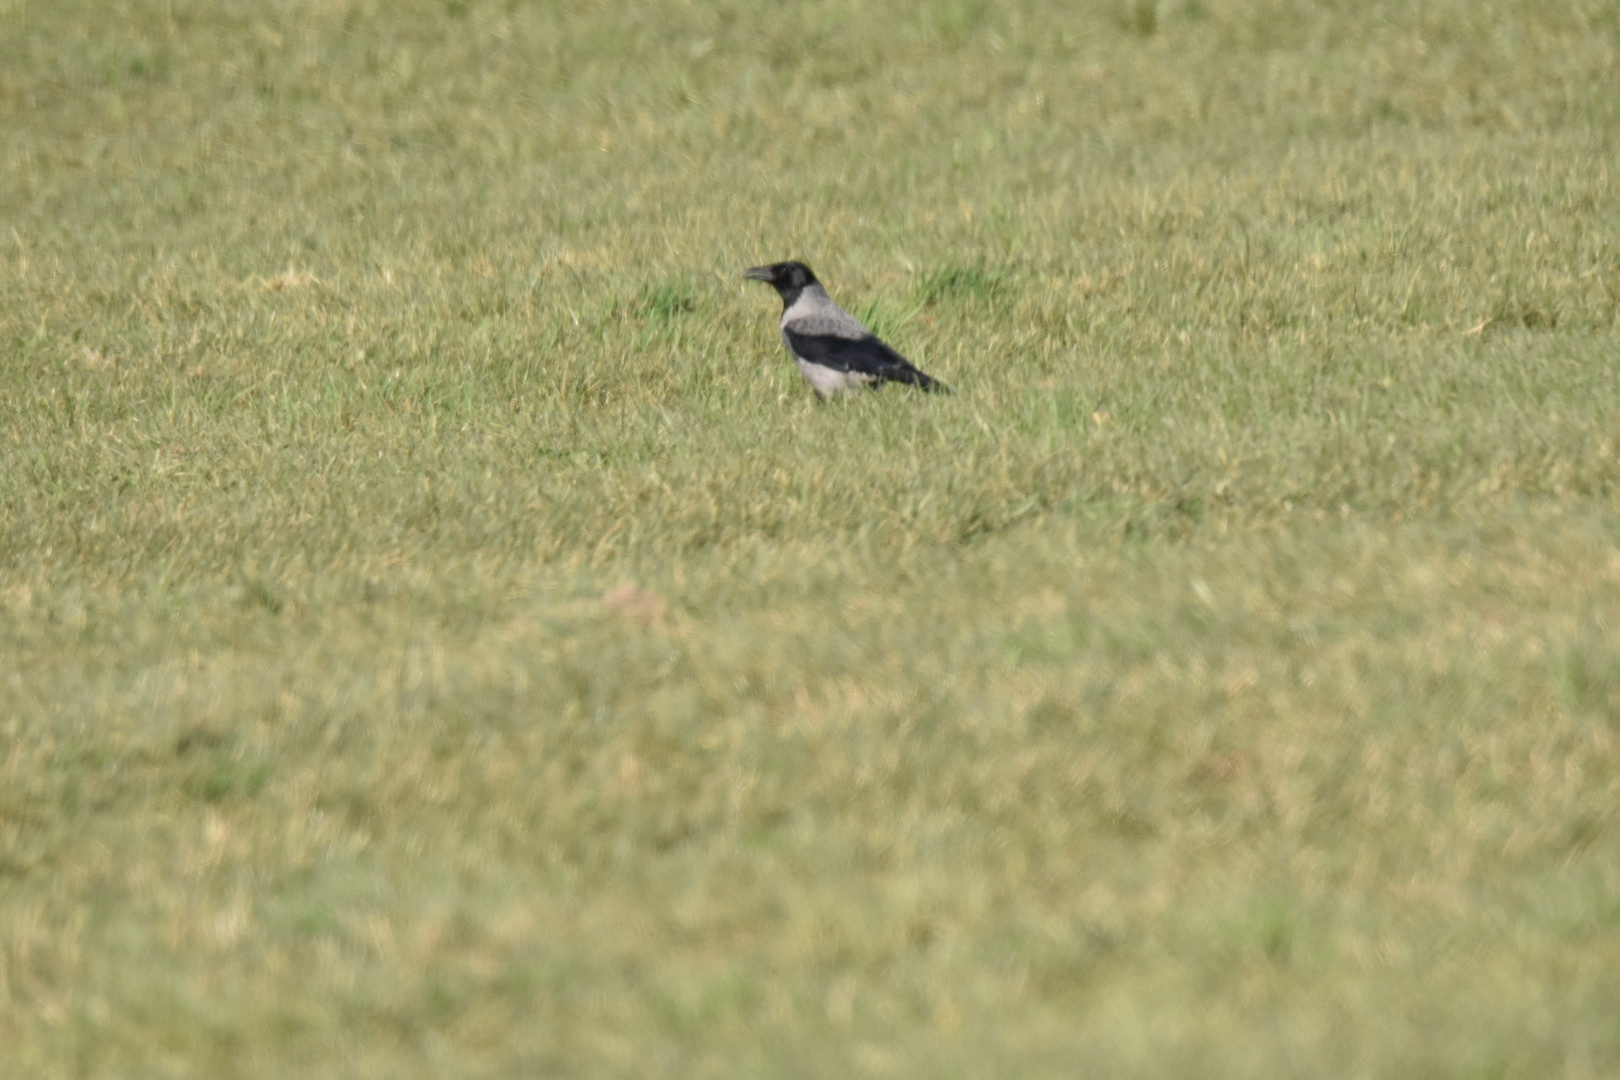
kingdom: Animalia
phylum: Chordata
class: Aves
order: Passeriformes
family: Corvidae
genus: Corvus
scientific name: Corvus cornix
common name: Hooded crow
